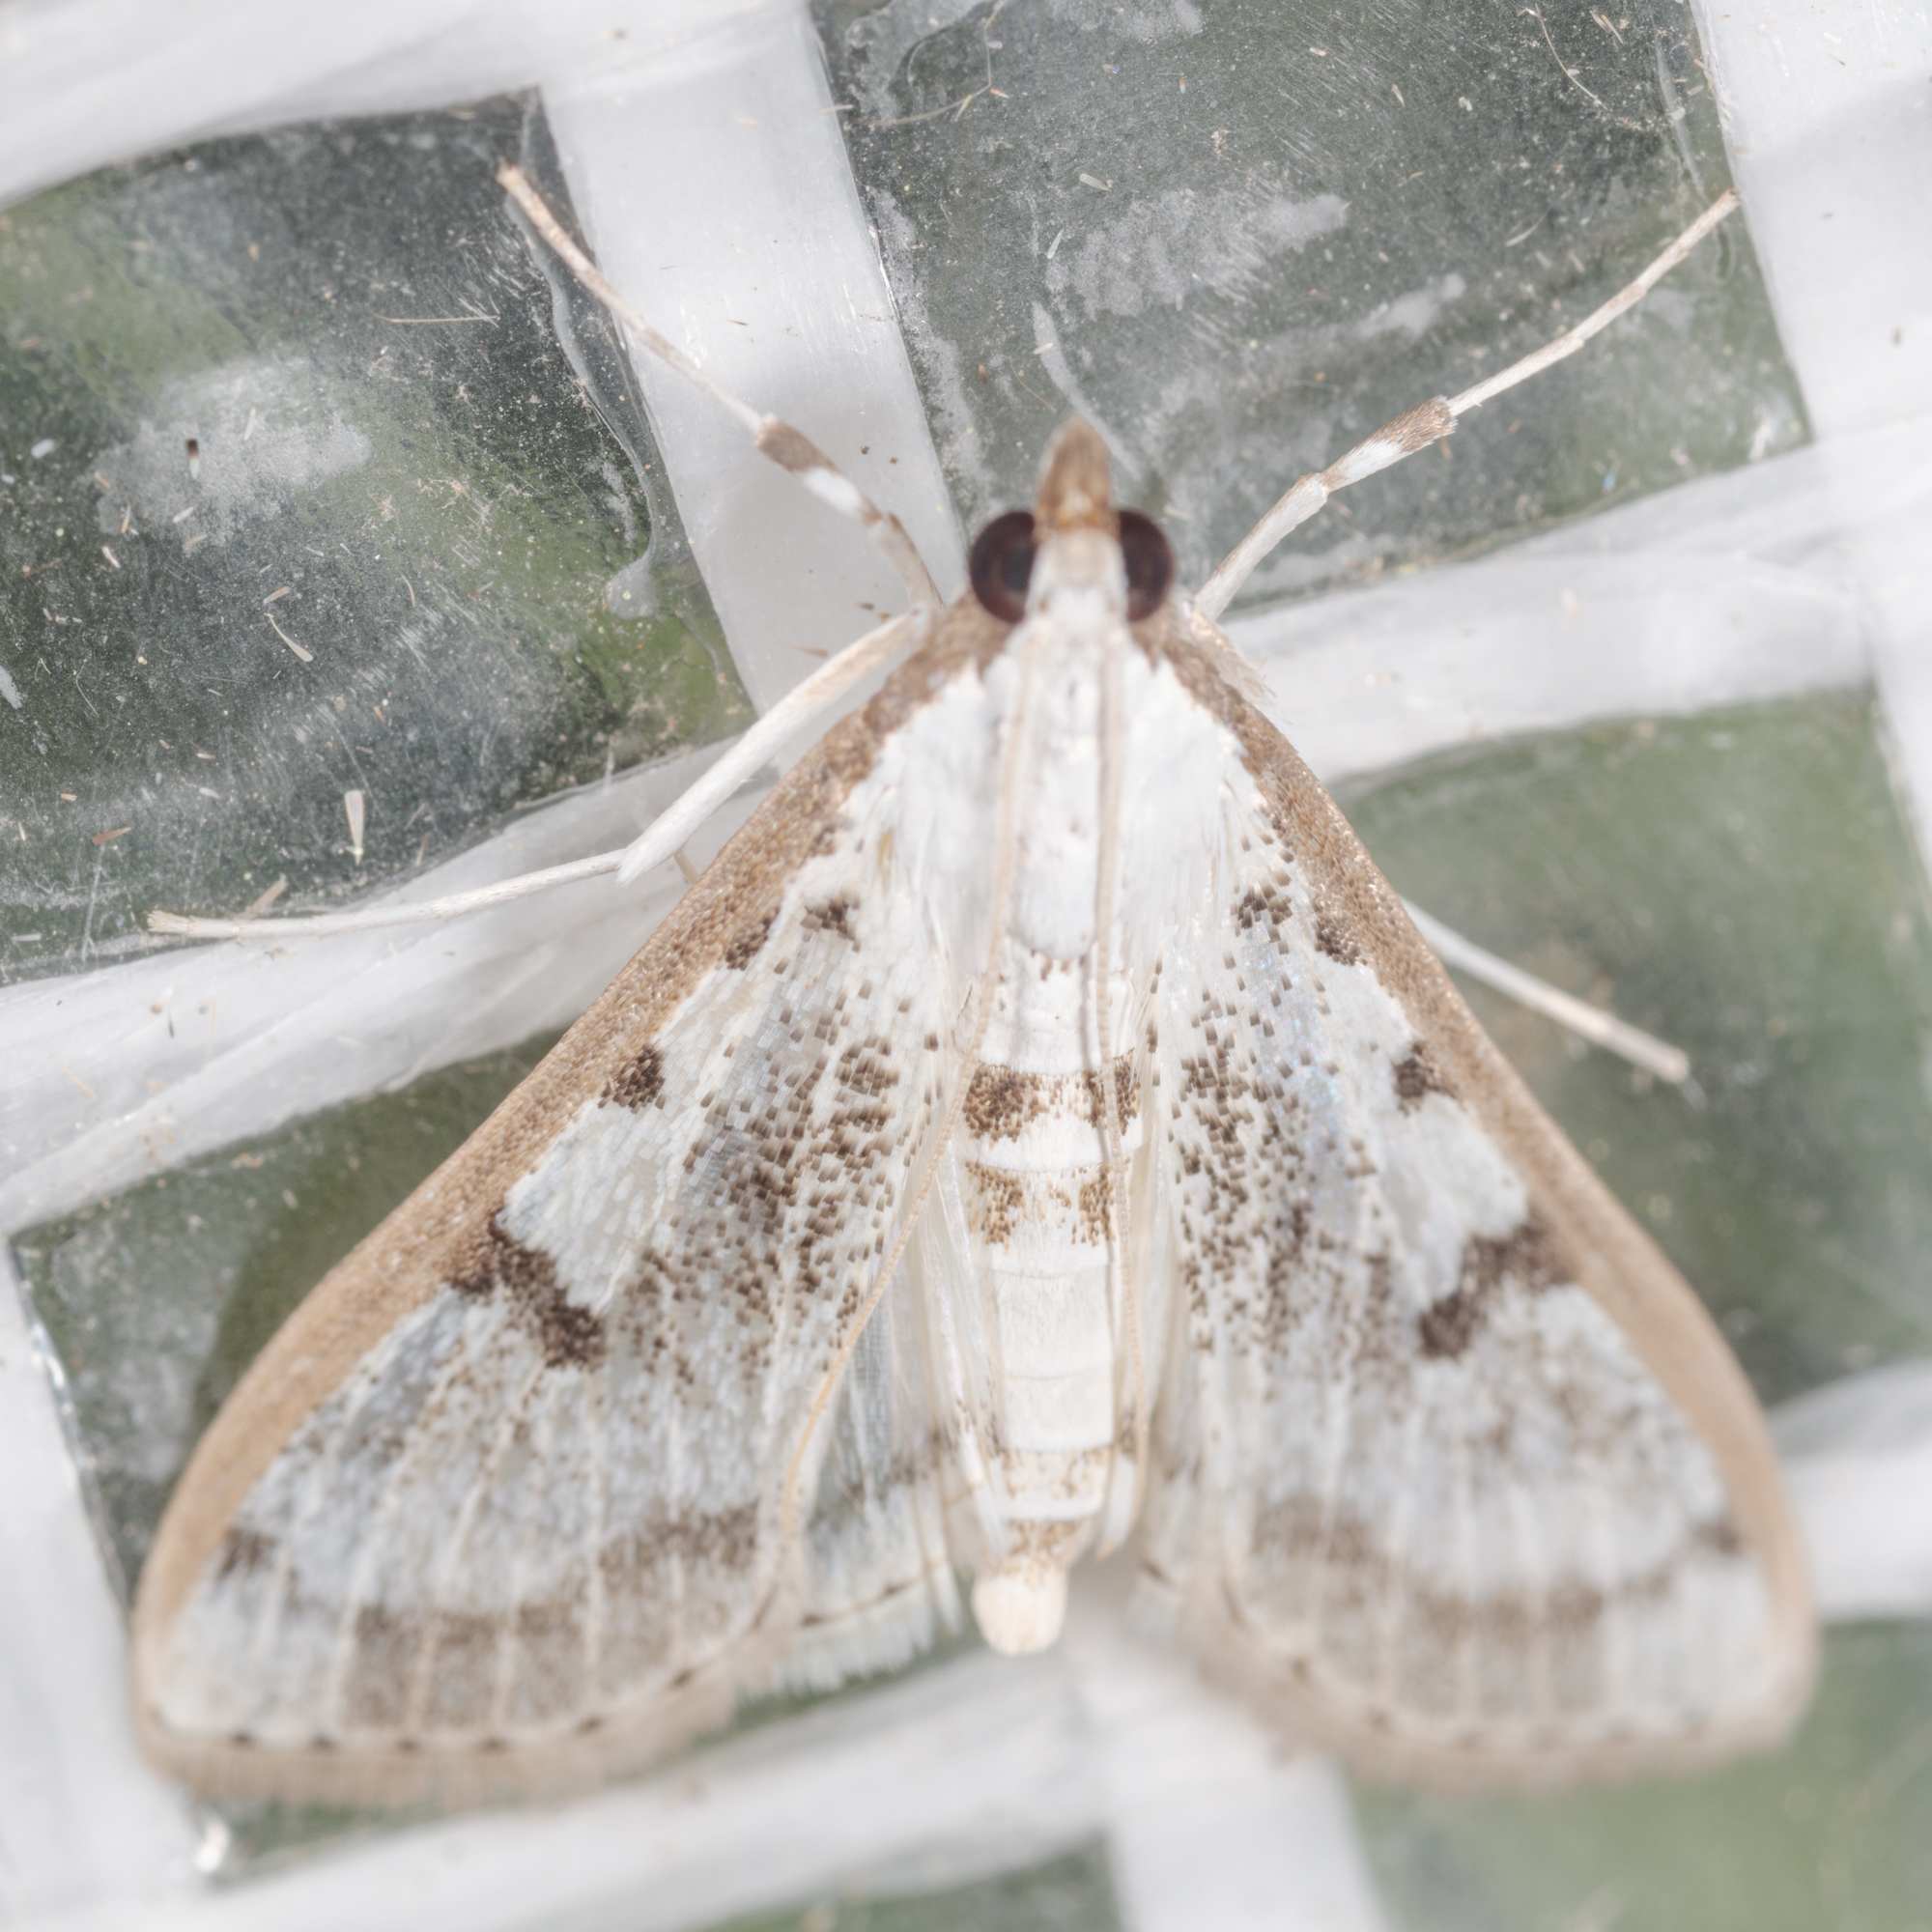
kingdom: Animalia
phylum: Arthropoda
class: Insecta
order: Lepidoptera
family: Crambidae
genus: Palpita
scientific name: Palpita gracilalis
